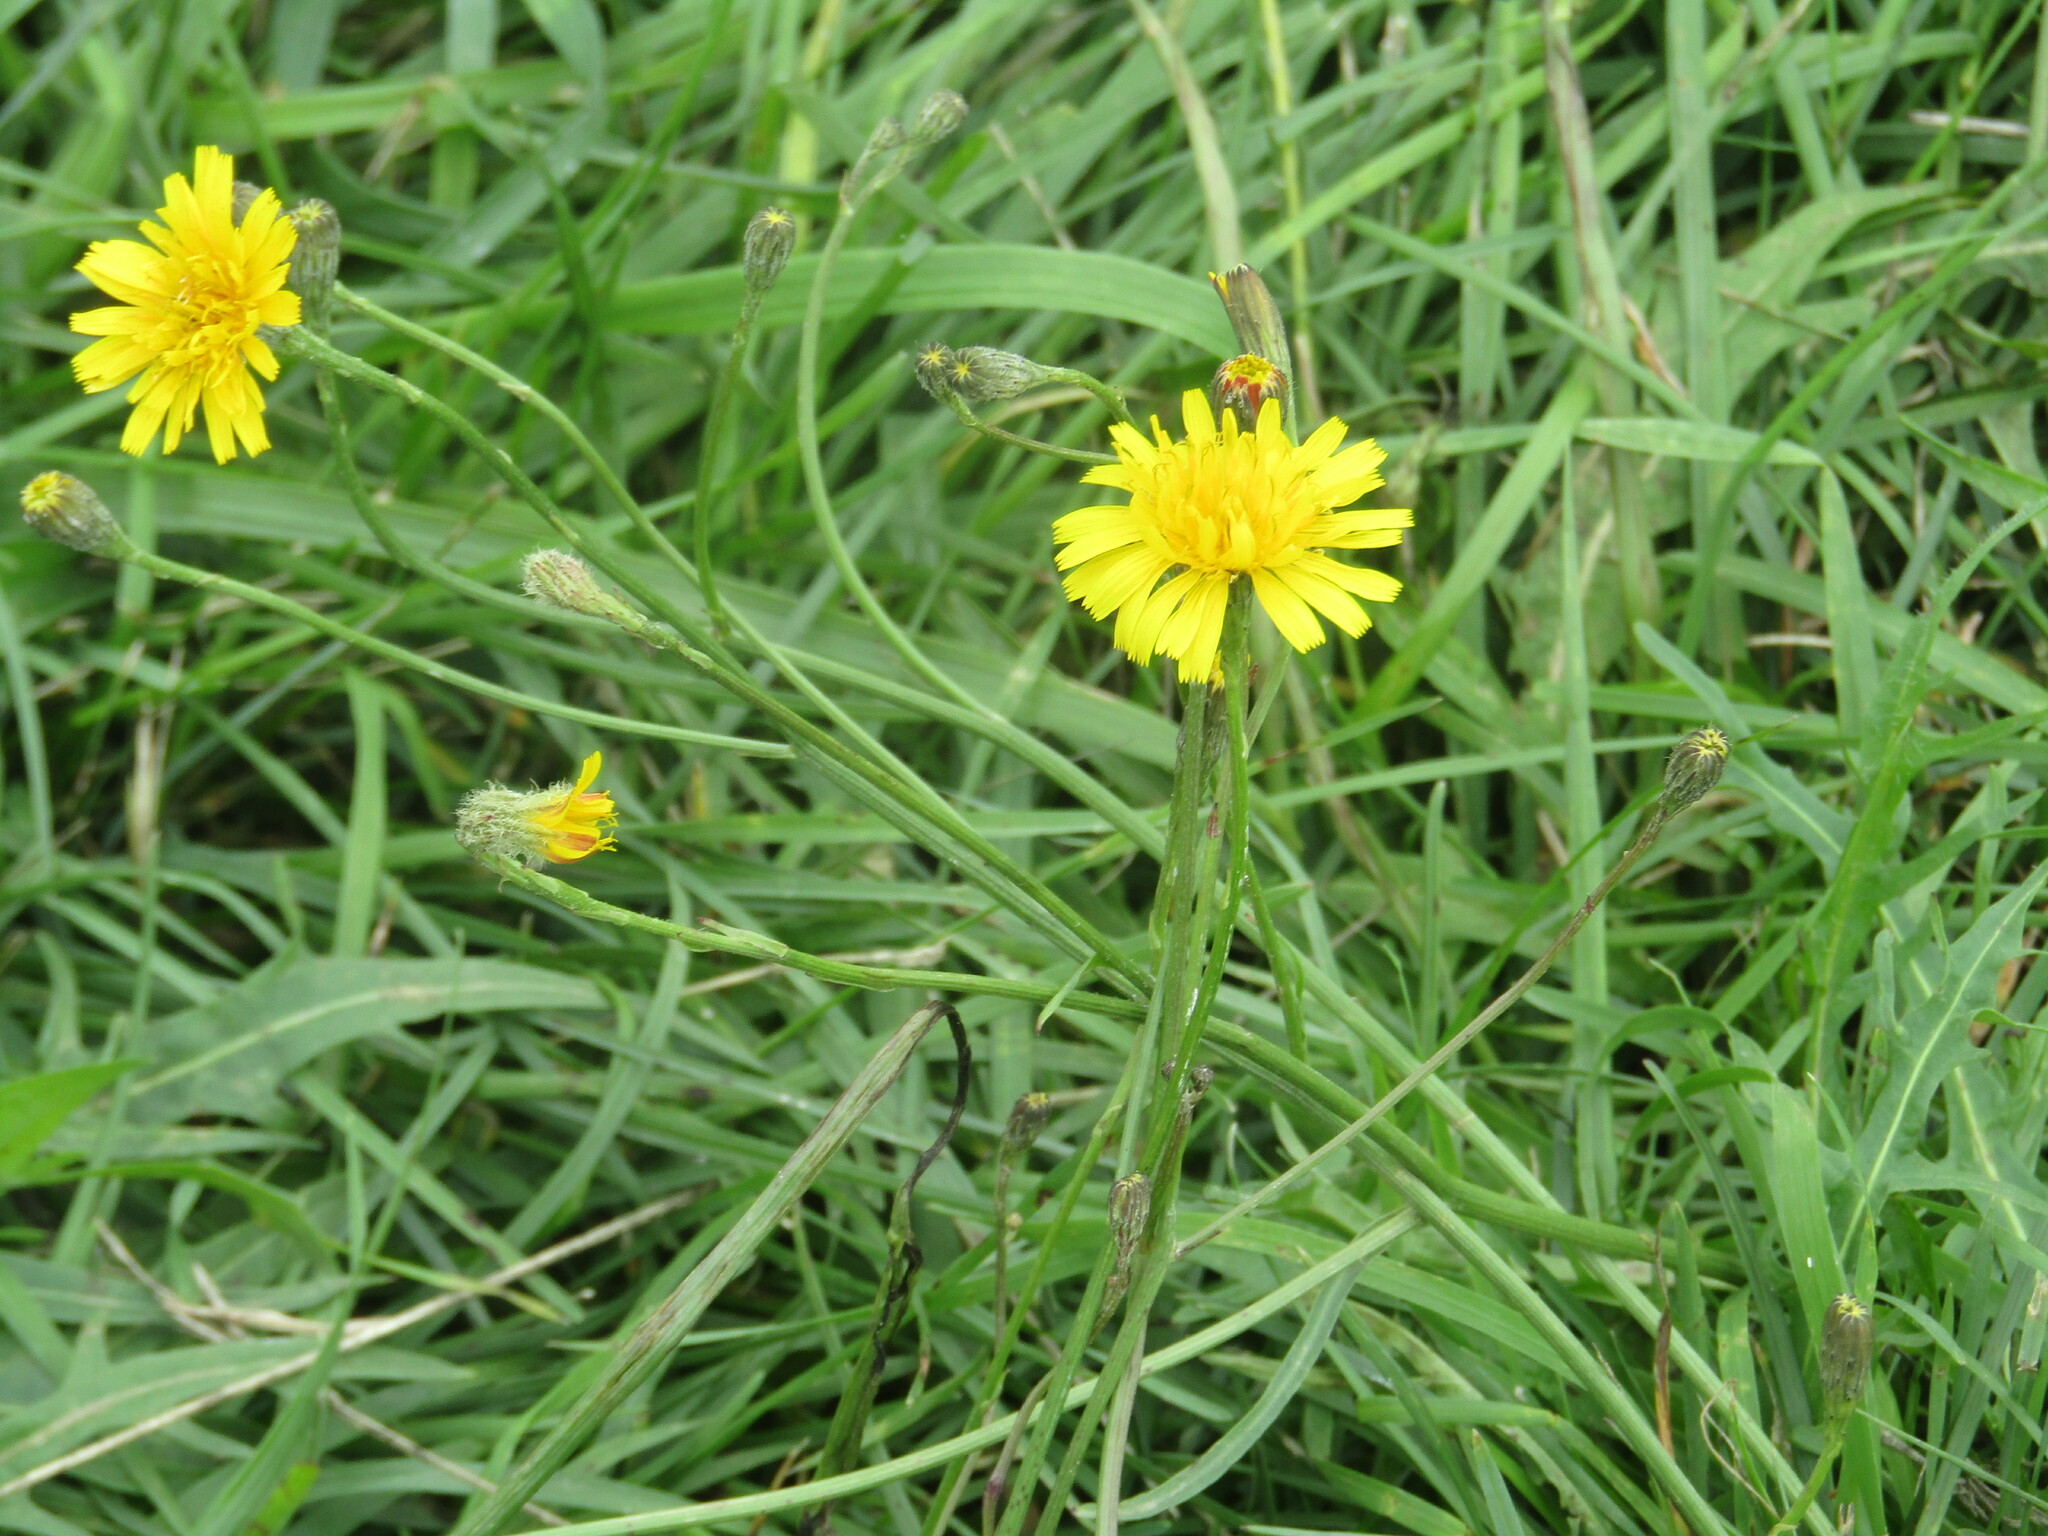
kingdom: Plantae
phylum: Tracheophyta
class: Magnoliopsida
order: Asterales
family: Asteraceae
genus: Scorzoneroides
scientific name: Scorzoneroides autumnalis
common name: Autumn hawkbit
